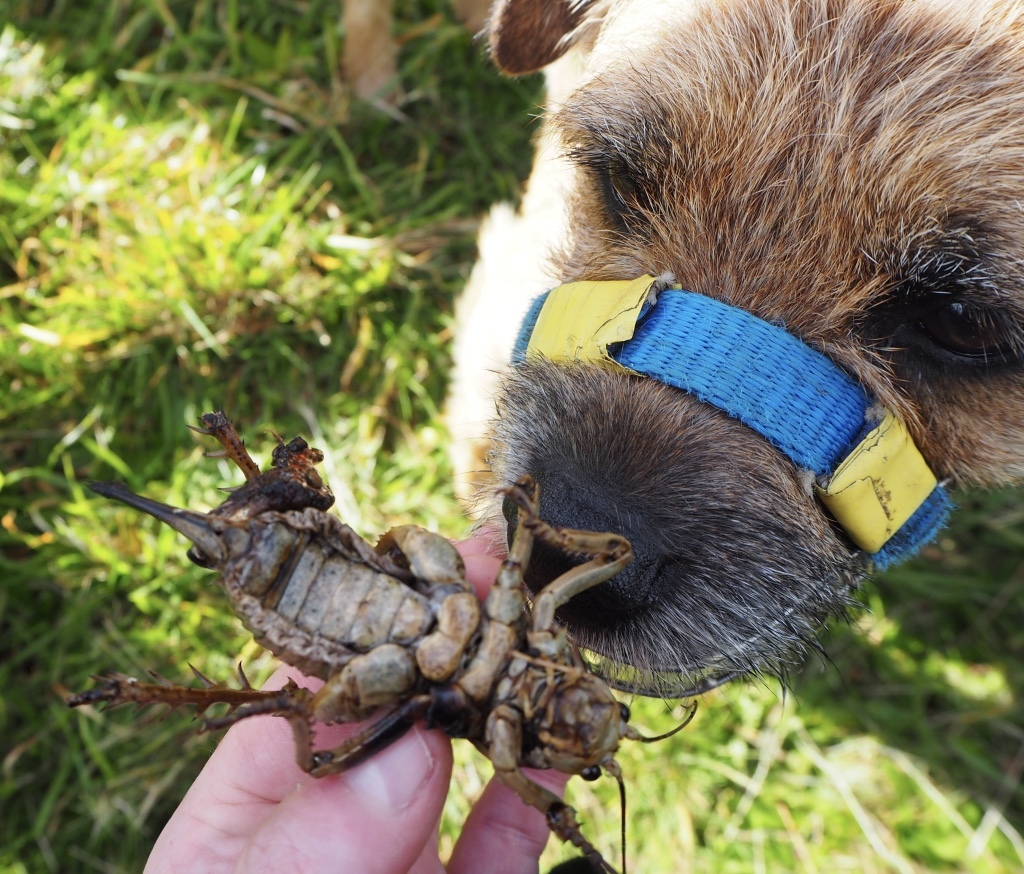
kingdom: Animalia
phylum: Arthropoda
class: Insecta
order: Orthoptera
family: Anostostomatidae
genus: Deinacrida
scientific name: Deinacrida rugosa
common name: Stephens island weta
